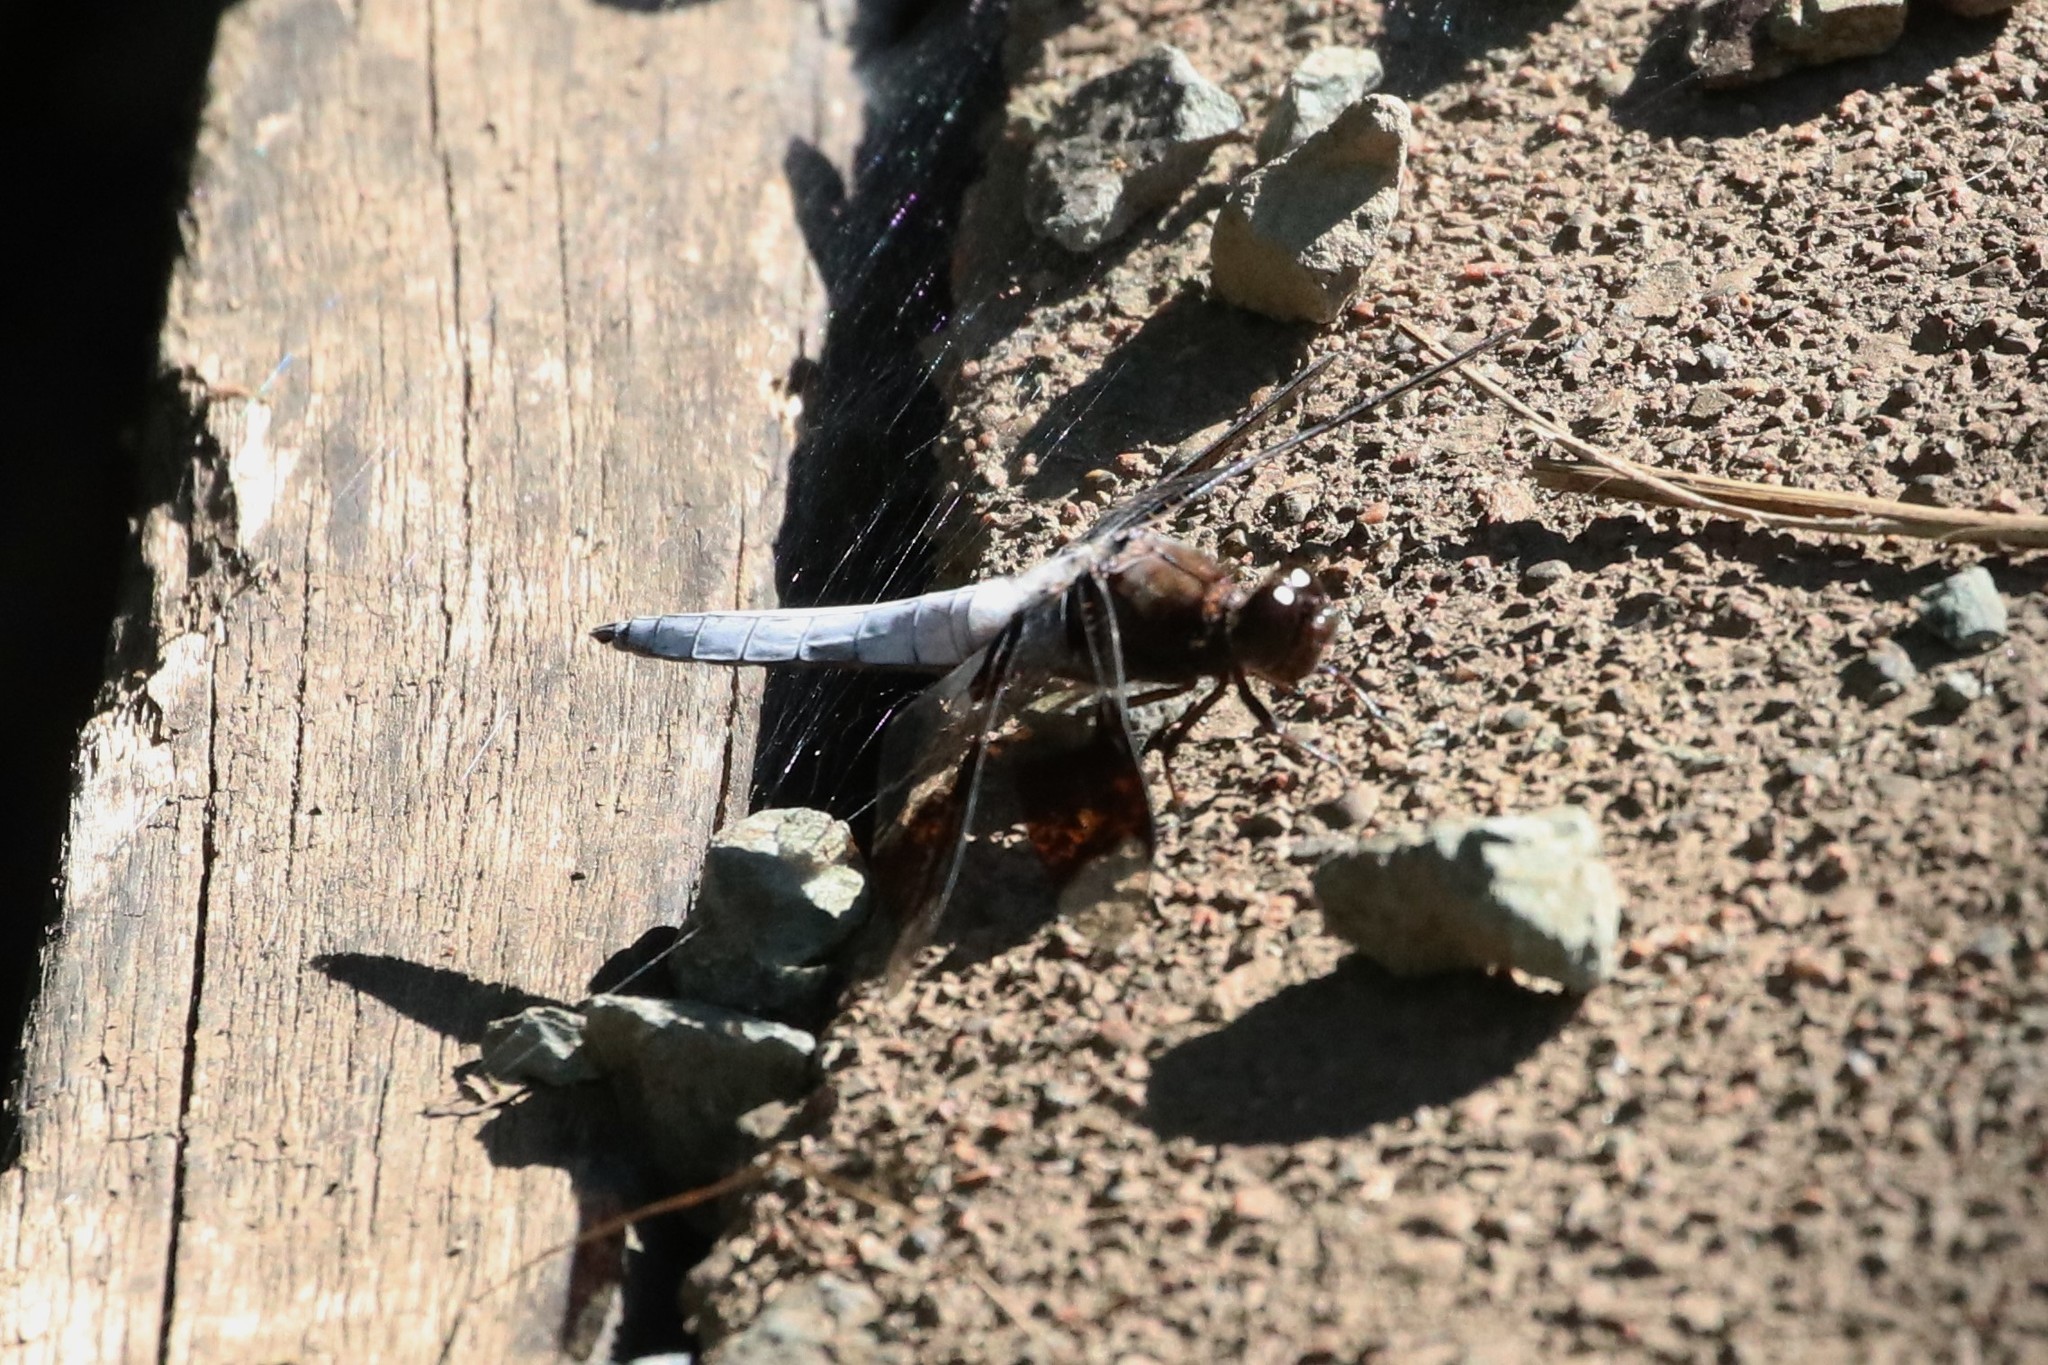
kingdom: Animalia
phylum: Arthropoda
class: Insecta
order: Odonata
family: Libellulidae
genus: Plathemis
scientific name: Plathemis lydia
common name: Common whitetail
